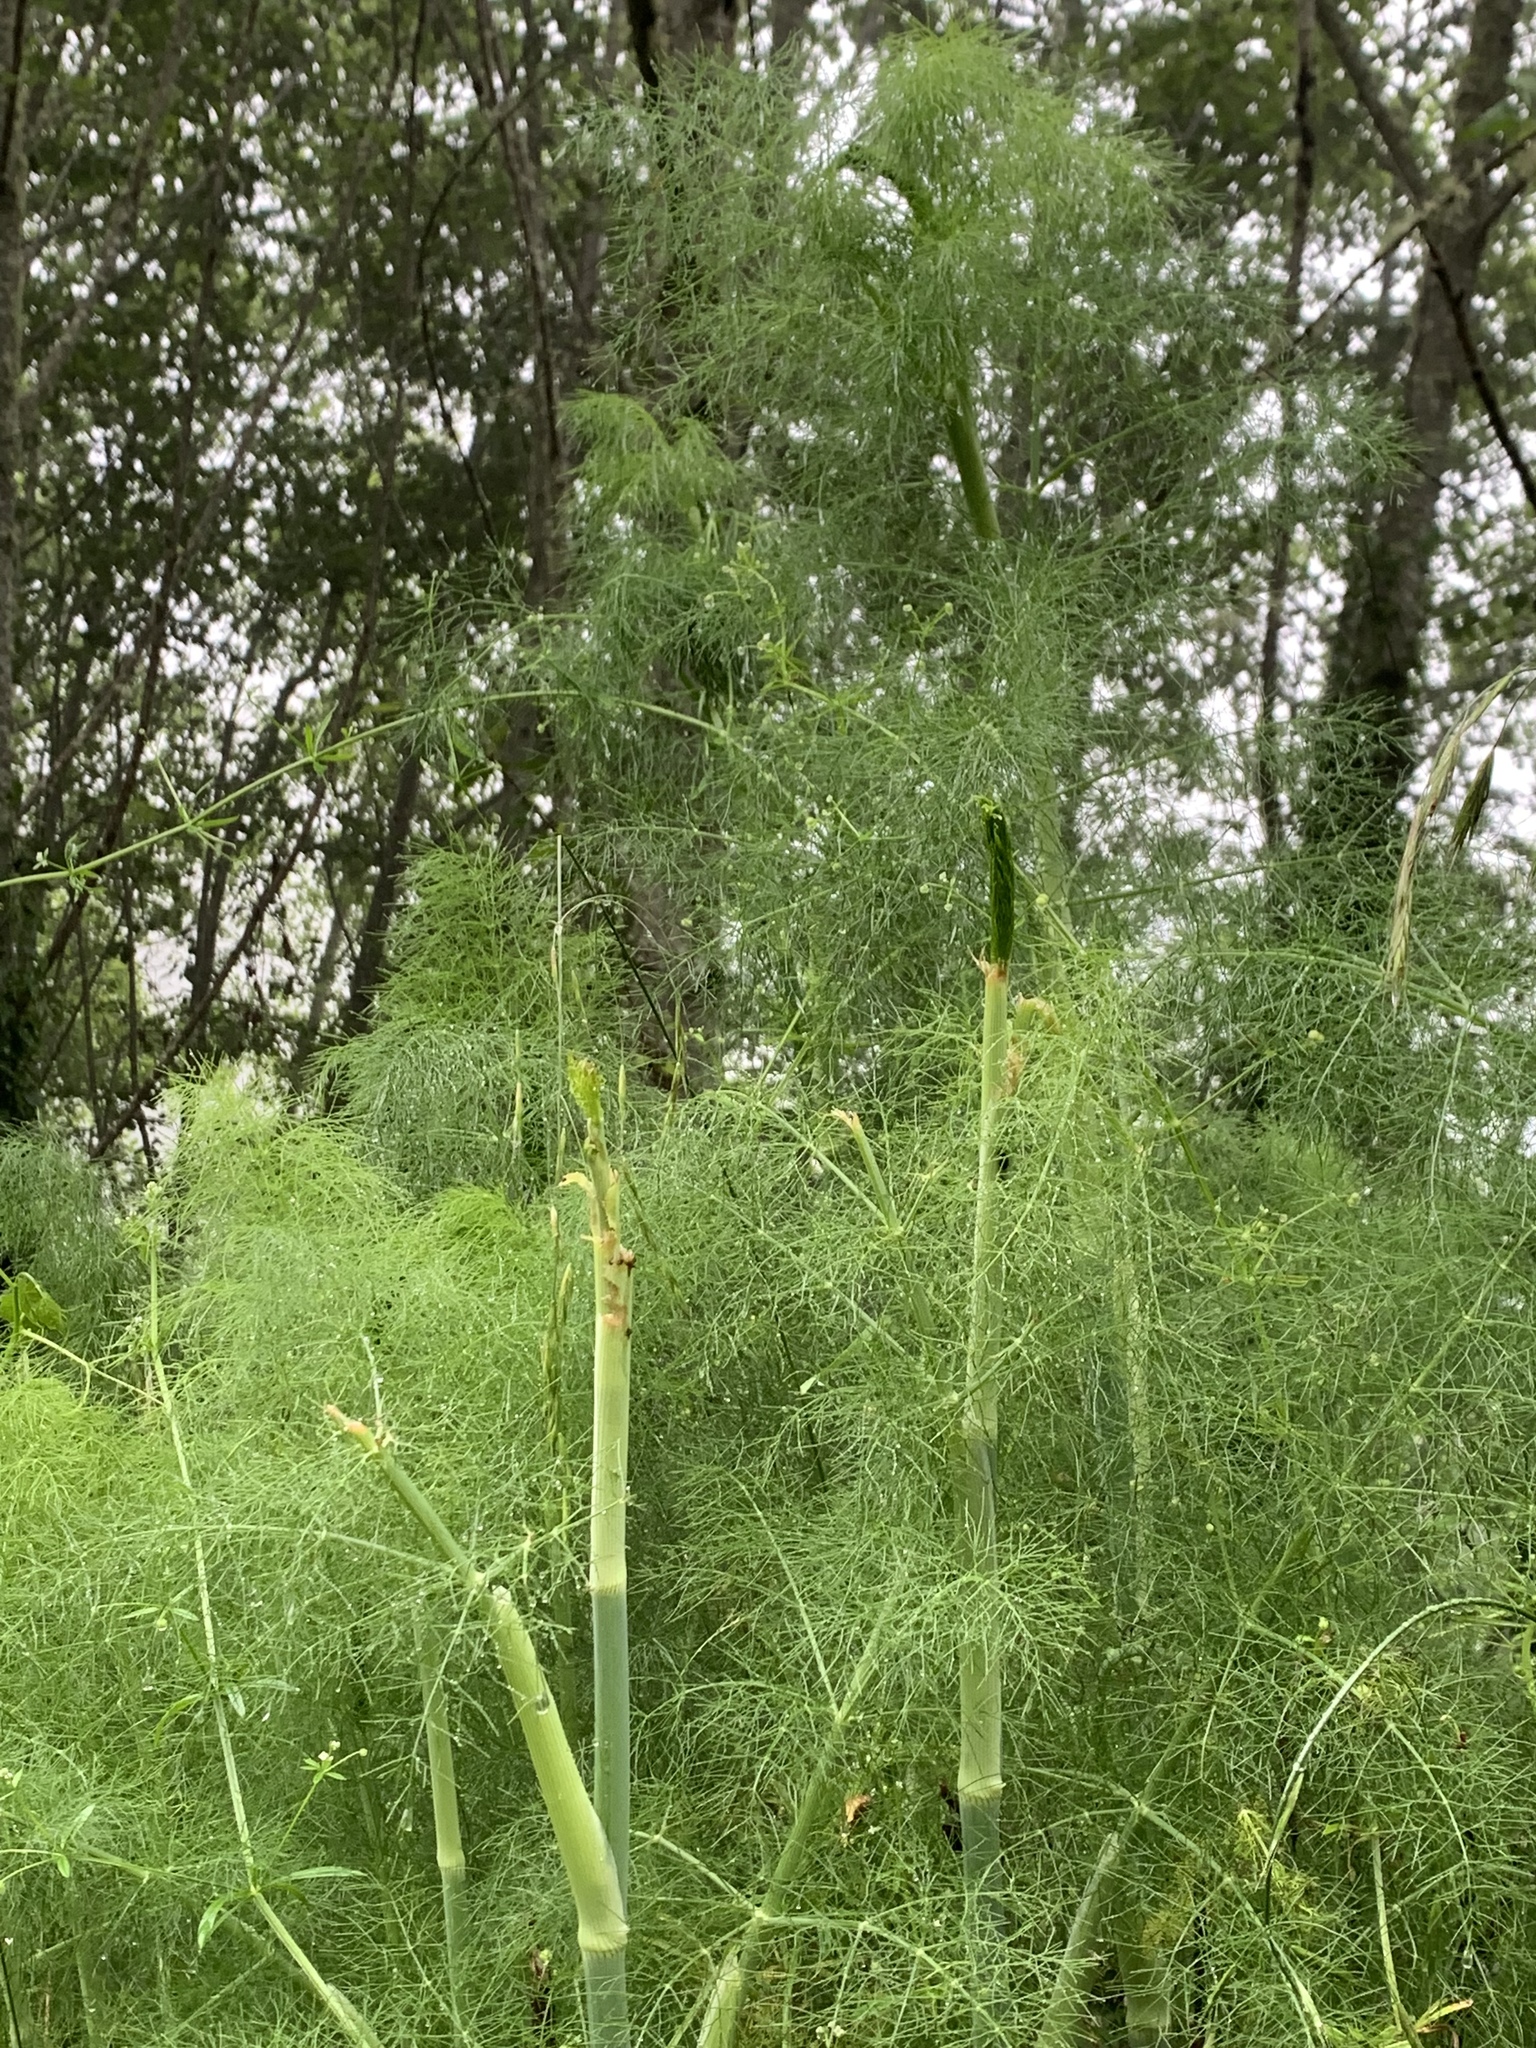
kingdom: Plantae
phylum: Tracheophyta
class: Magnoliopsida
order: Apiales
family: Apiaceae
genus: Foeniculum
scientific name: Foeniculum vulgare
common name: Fennel
